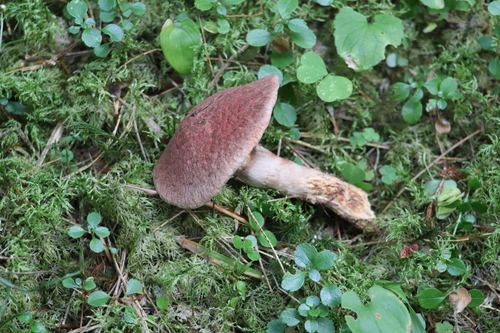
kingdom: Fungi
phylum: Basidiomycota
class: Agaricomycetes
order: Boletales
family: Suillaceae
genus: Suillus
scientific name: Suillus spraguei
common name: Painted suillus
